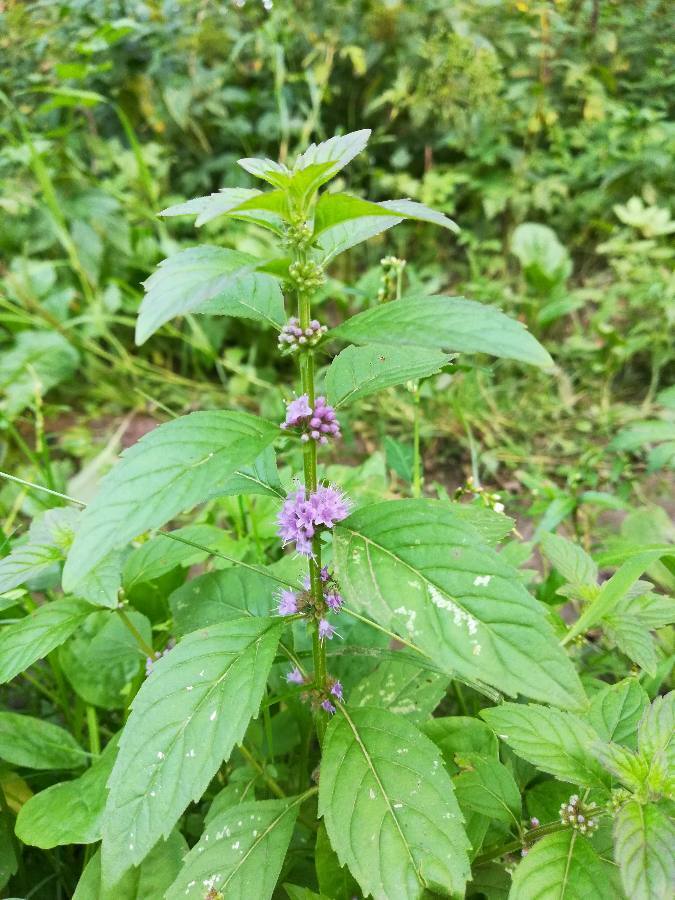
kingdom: Plantae
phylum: Tracheophyta
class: Magnoliopsida
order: Lamiales
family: Lamiaceae
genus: Mentha
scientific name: Mentha arvensis
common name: Corn mint
